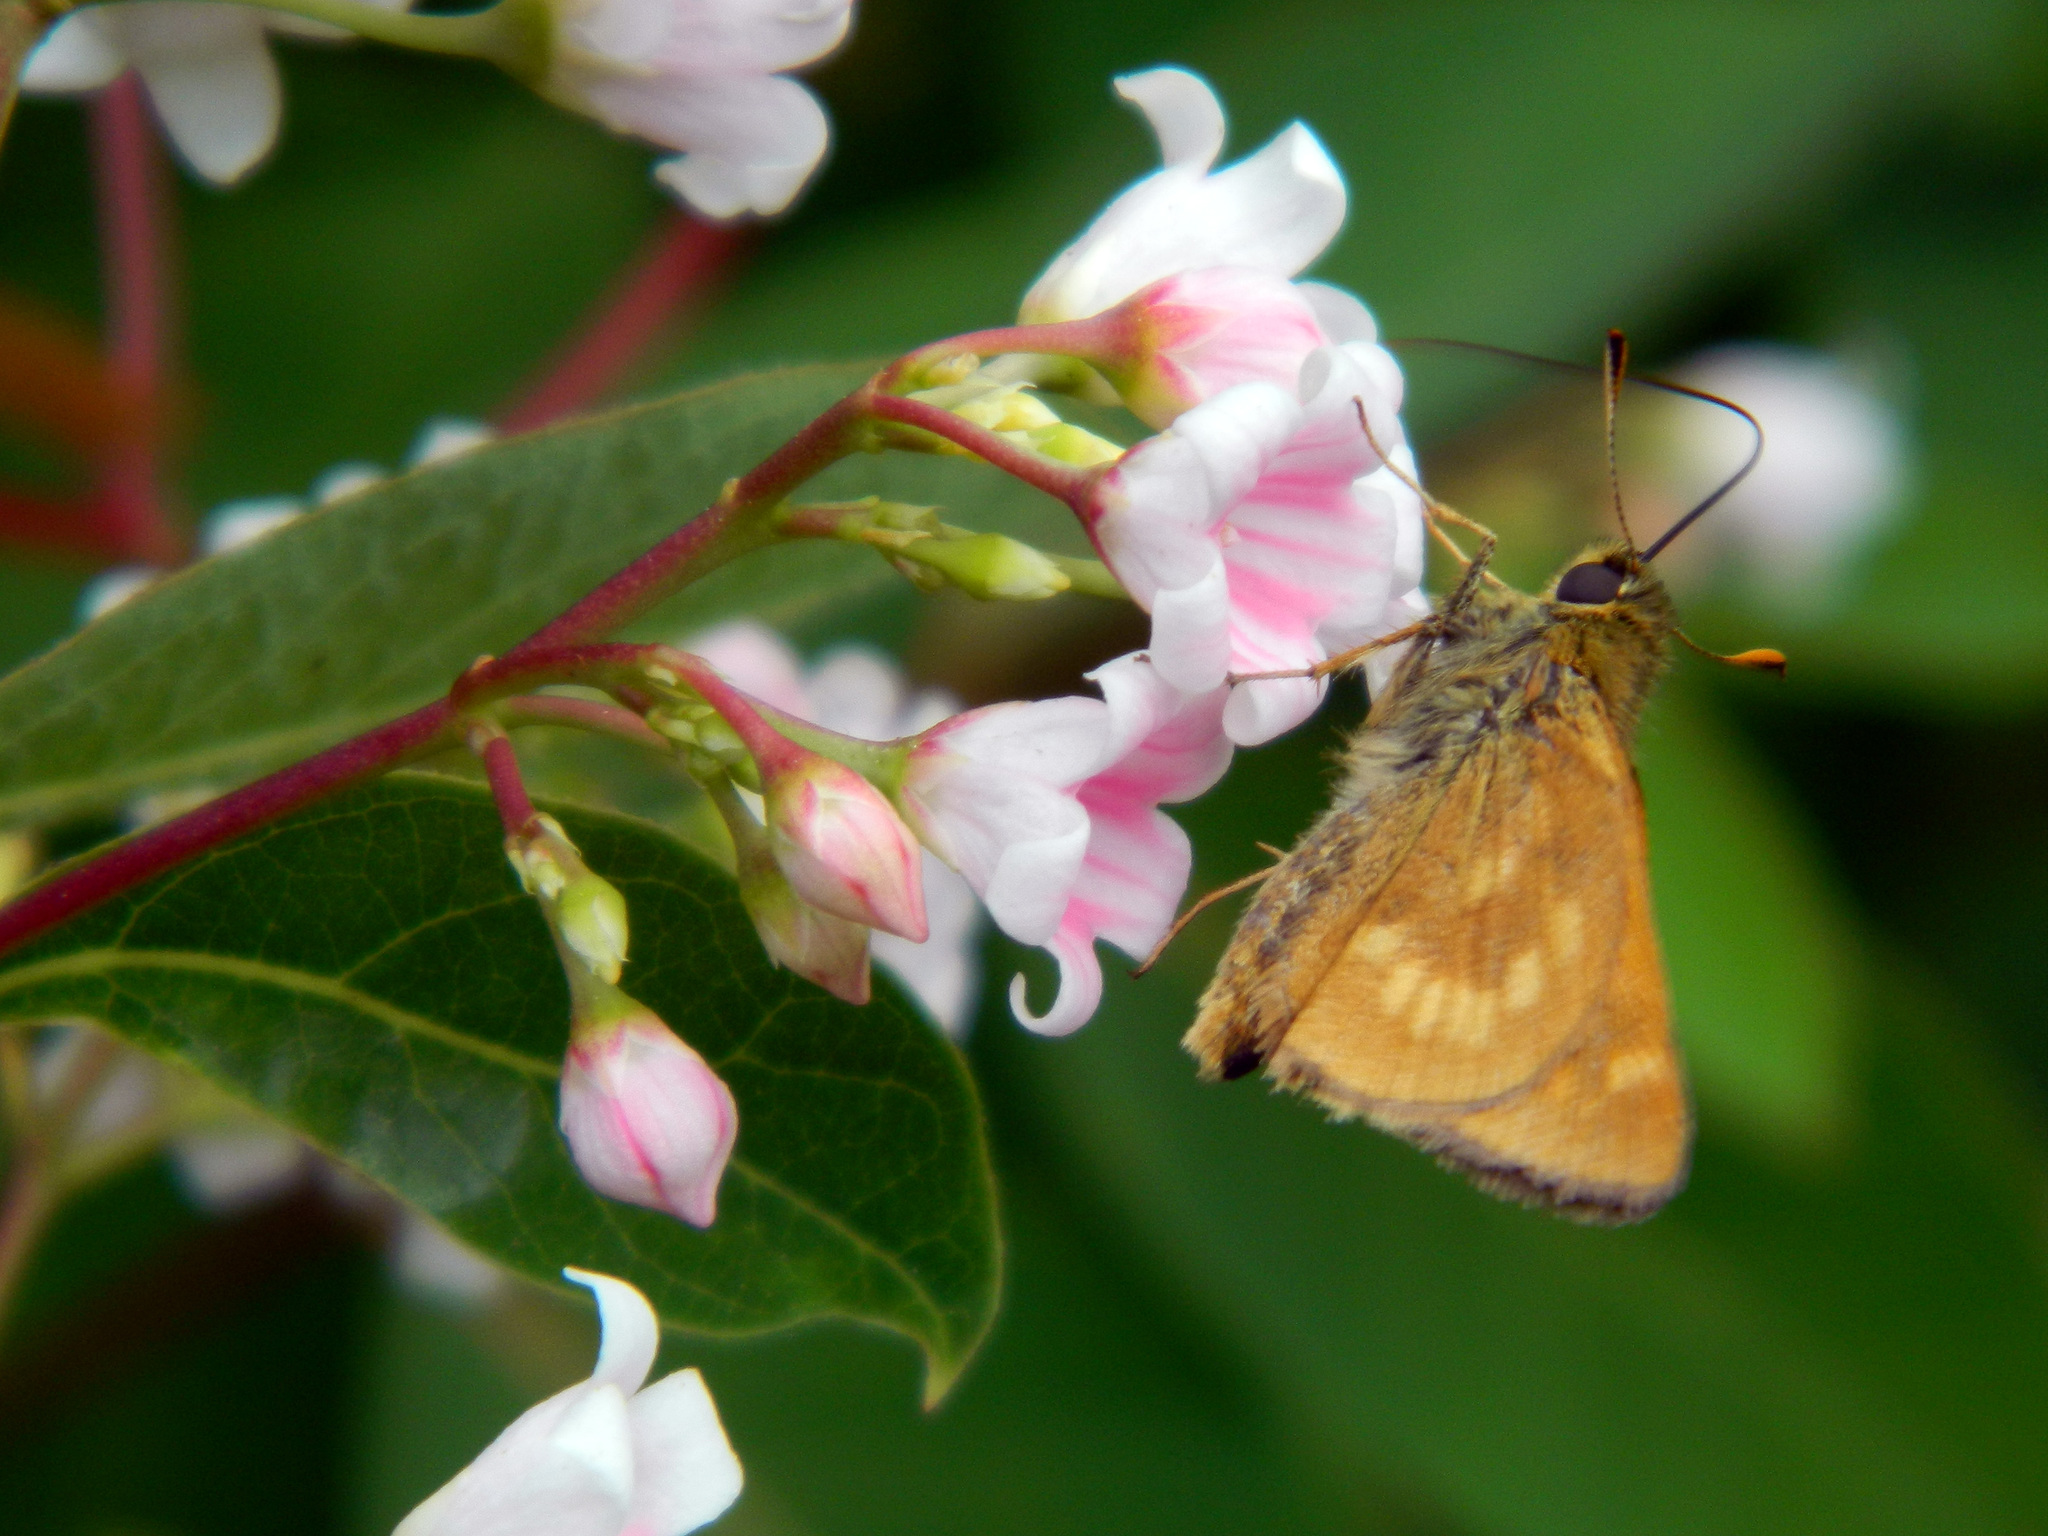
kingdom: Animalia
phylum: Arthropoda
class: Insecta
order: Lepidoptera
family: Hesperiidae
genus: Polites
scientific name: Polites mystic
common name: Long dash
